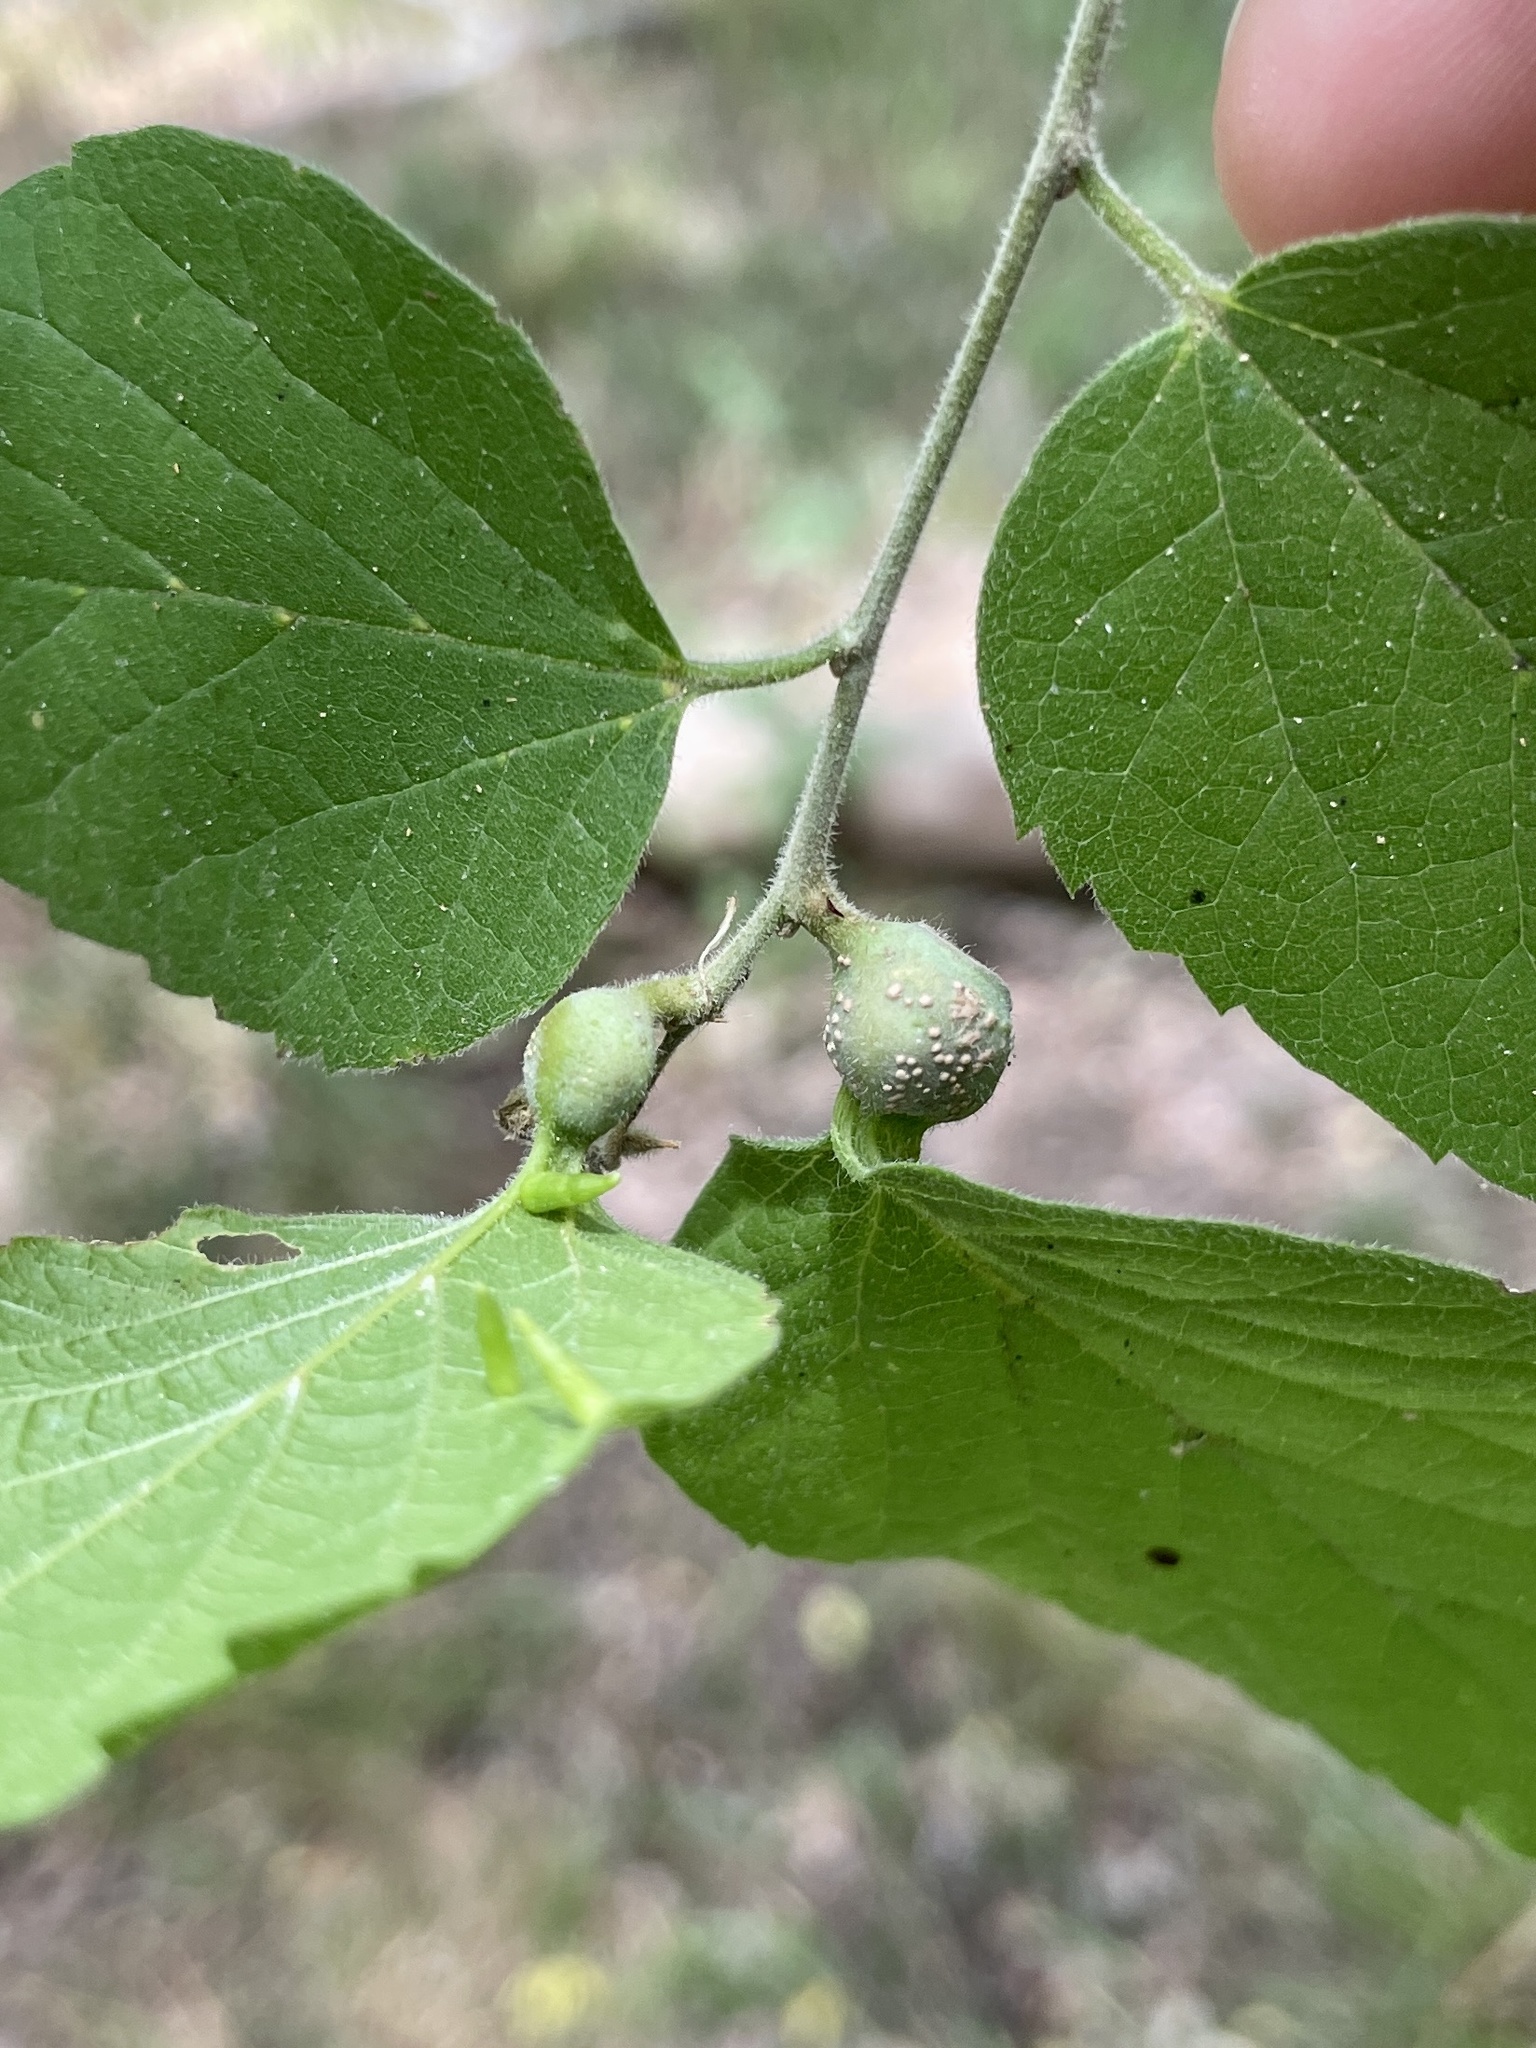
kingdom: Animalia
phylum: Arthropoda
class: Insecta
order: Hemiptera
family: Aphalaridae
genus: Pachypsylla
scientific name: Pachypsylla venusta
